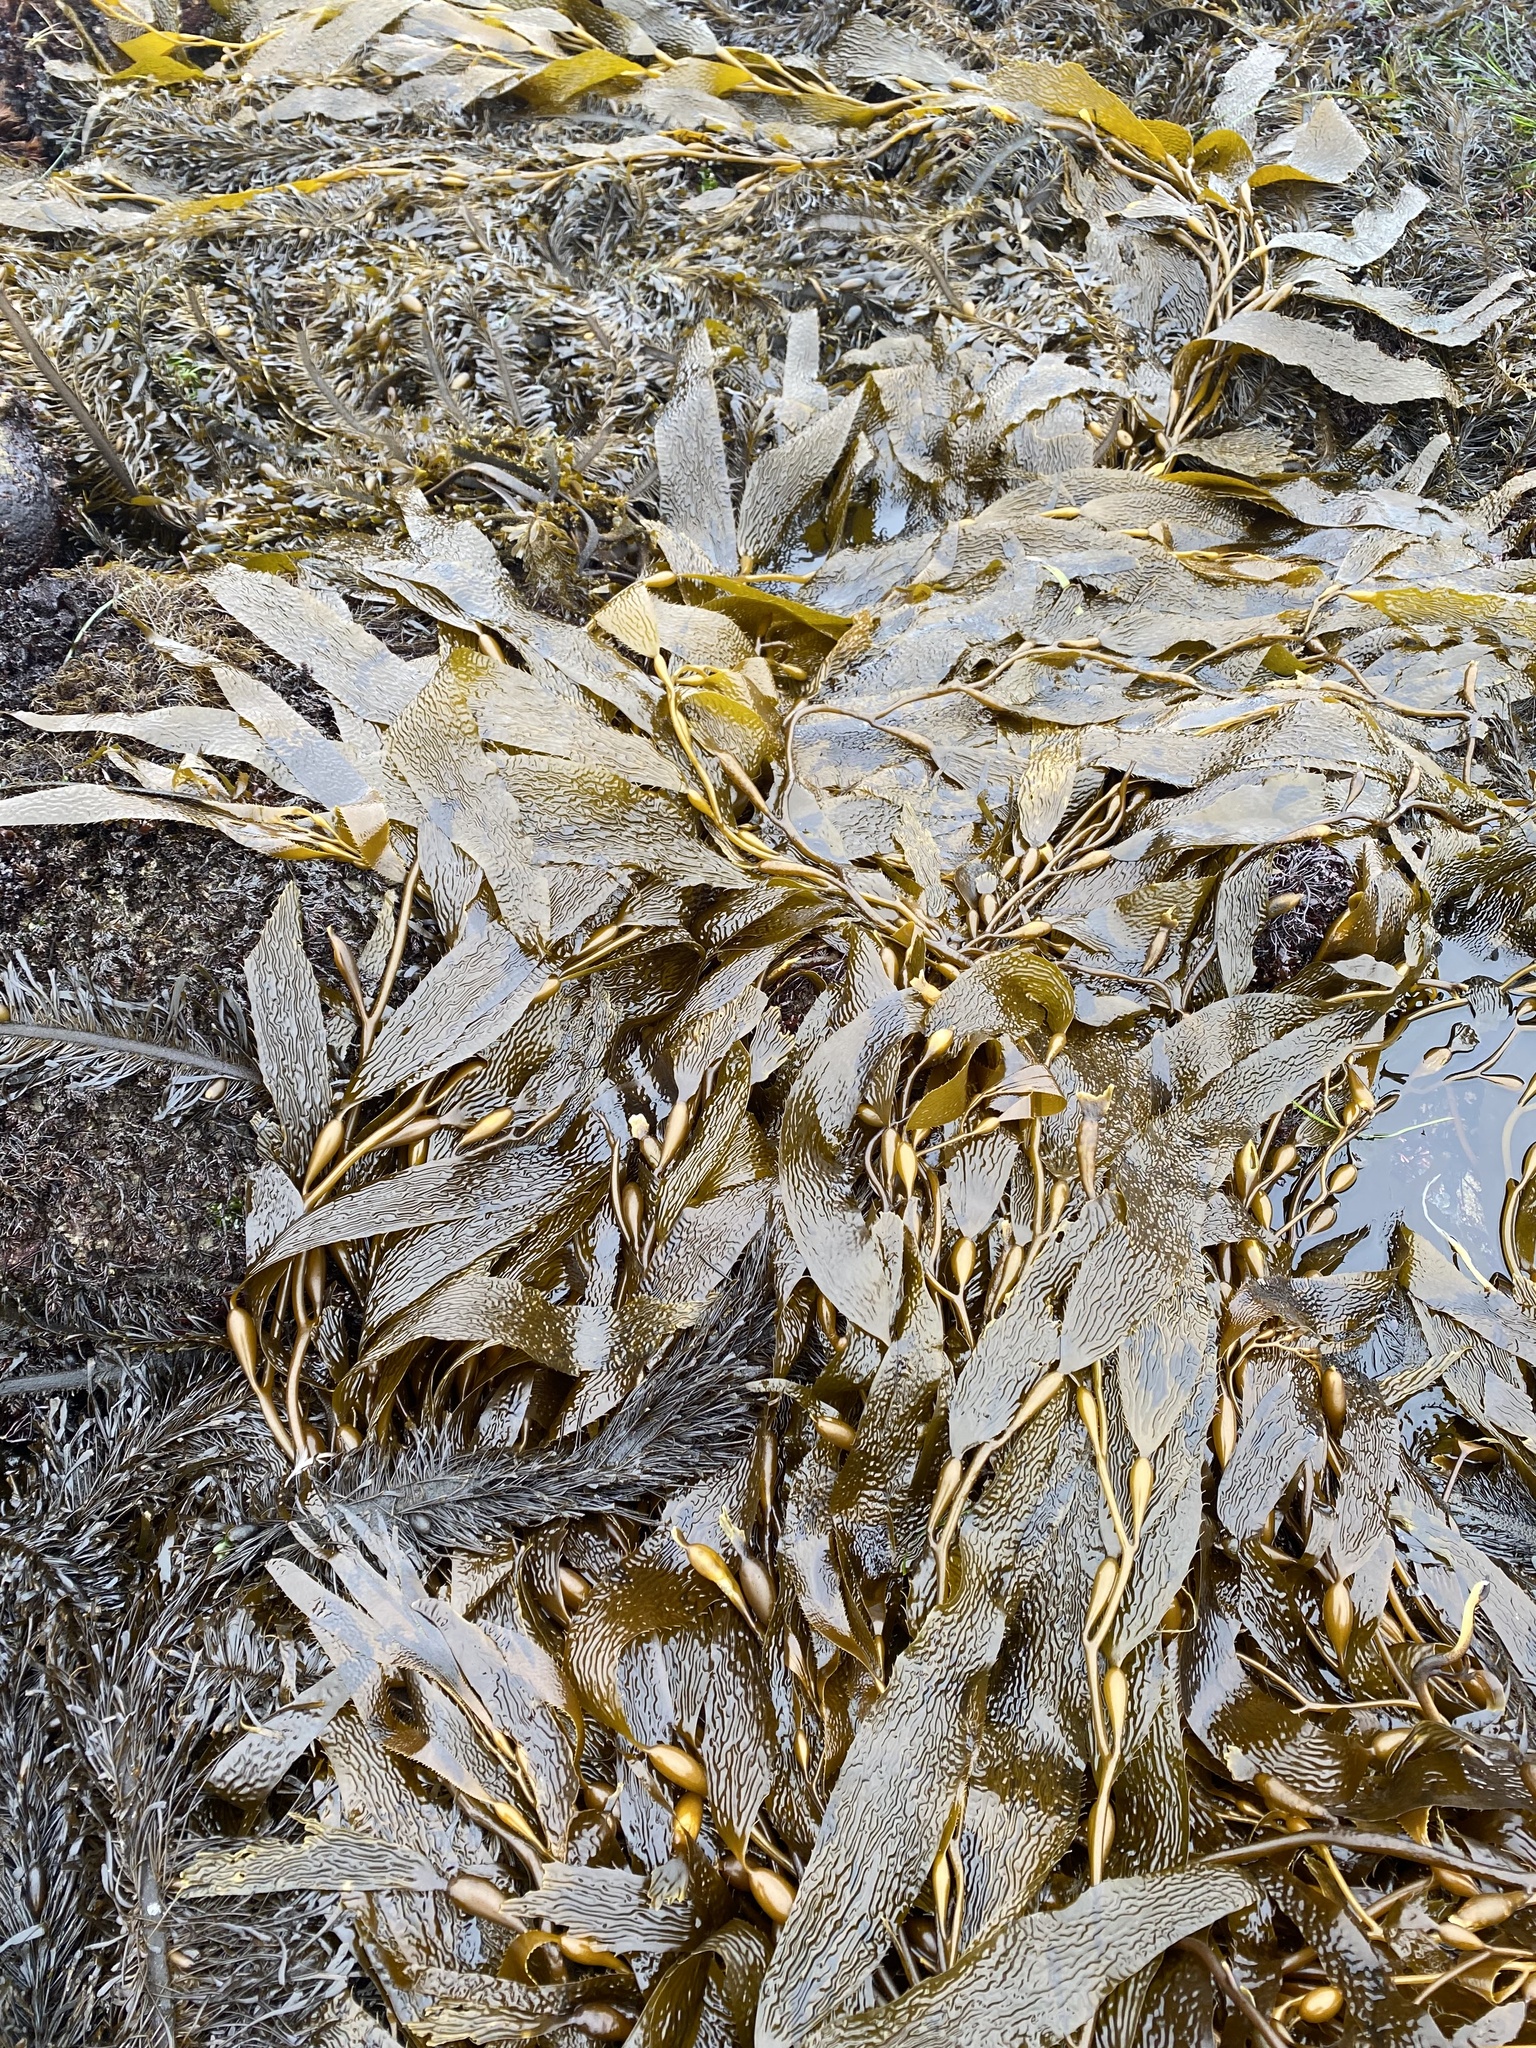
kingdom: Chromista
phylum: Ochrophyta
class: Phaeophyceae
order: Laminariales
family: Laminariaceae
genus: Macrocystis
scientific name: Macrocystis pyrifera
